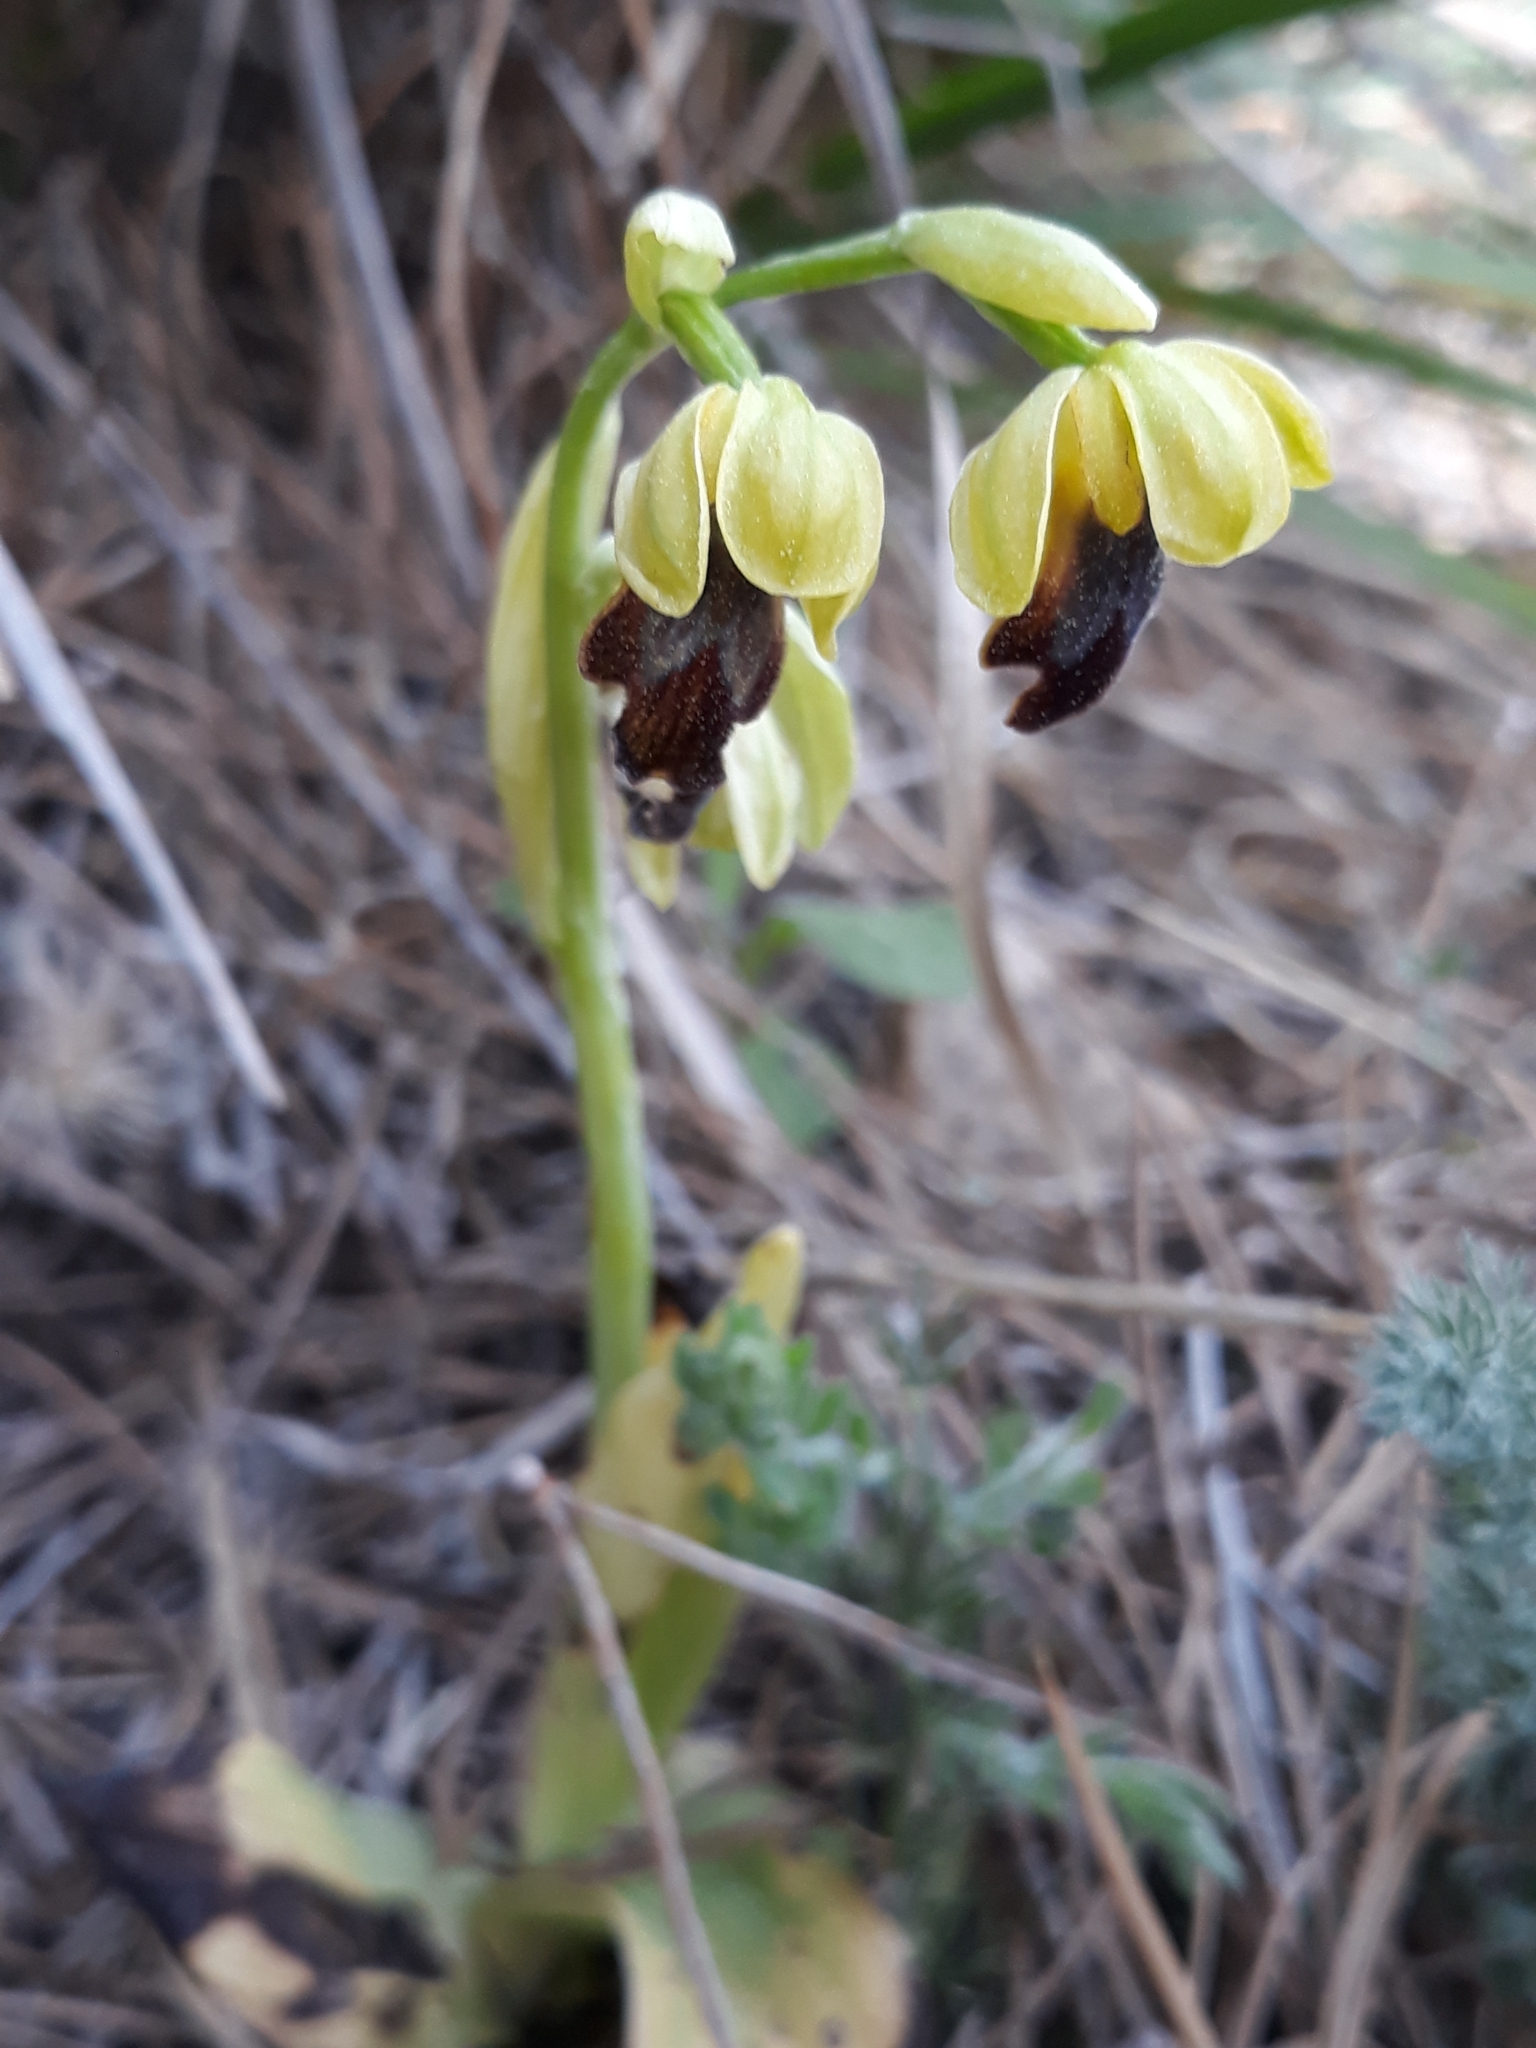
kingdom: Plantae
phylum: Tracheophyta
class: Liliopsida
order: Asparagales
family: Orchidaceae
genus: Ophrys
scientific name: Ophrys fusca
